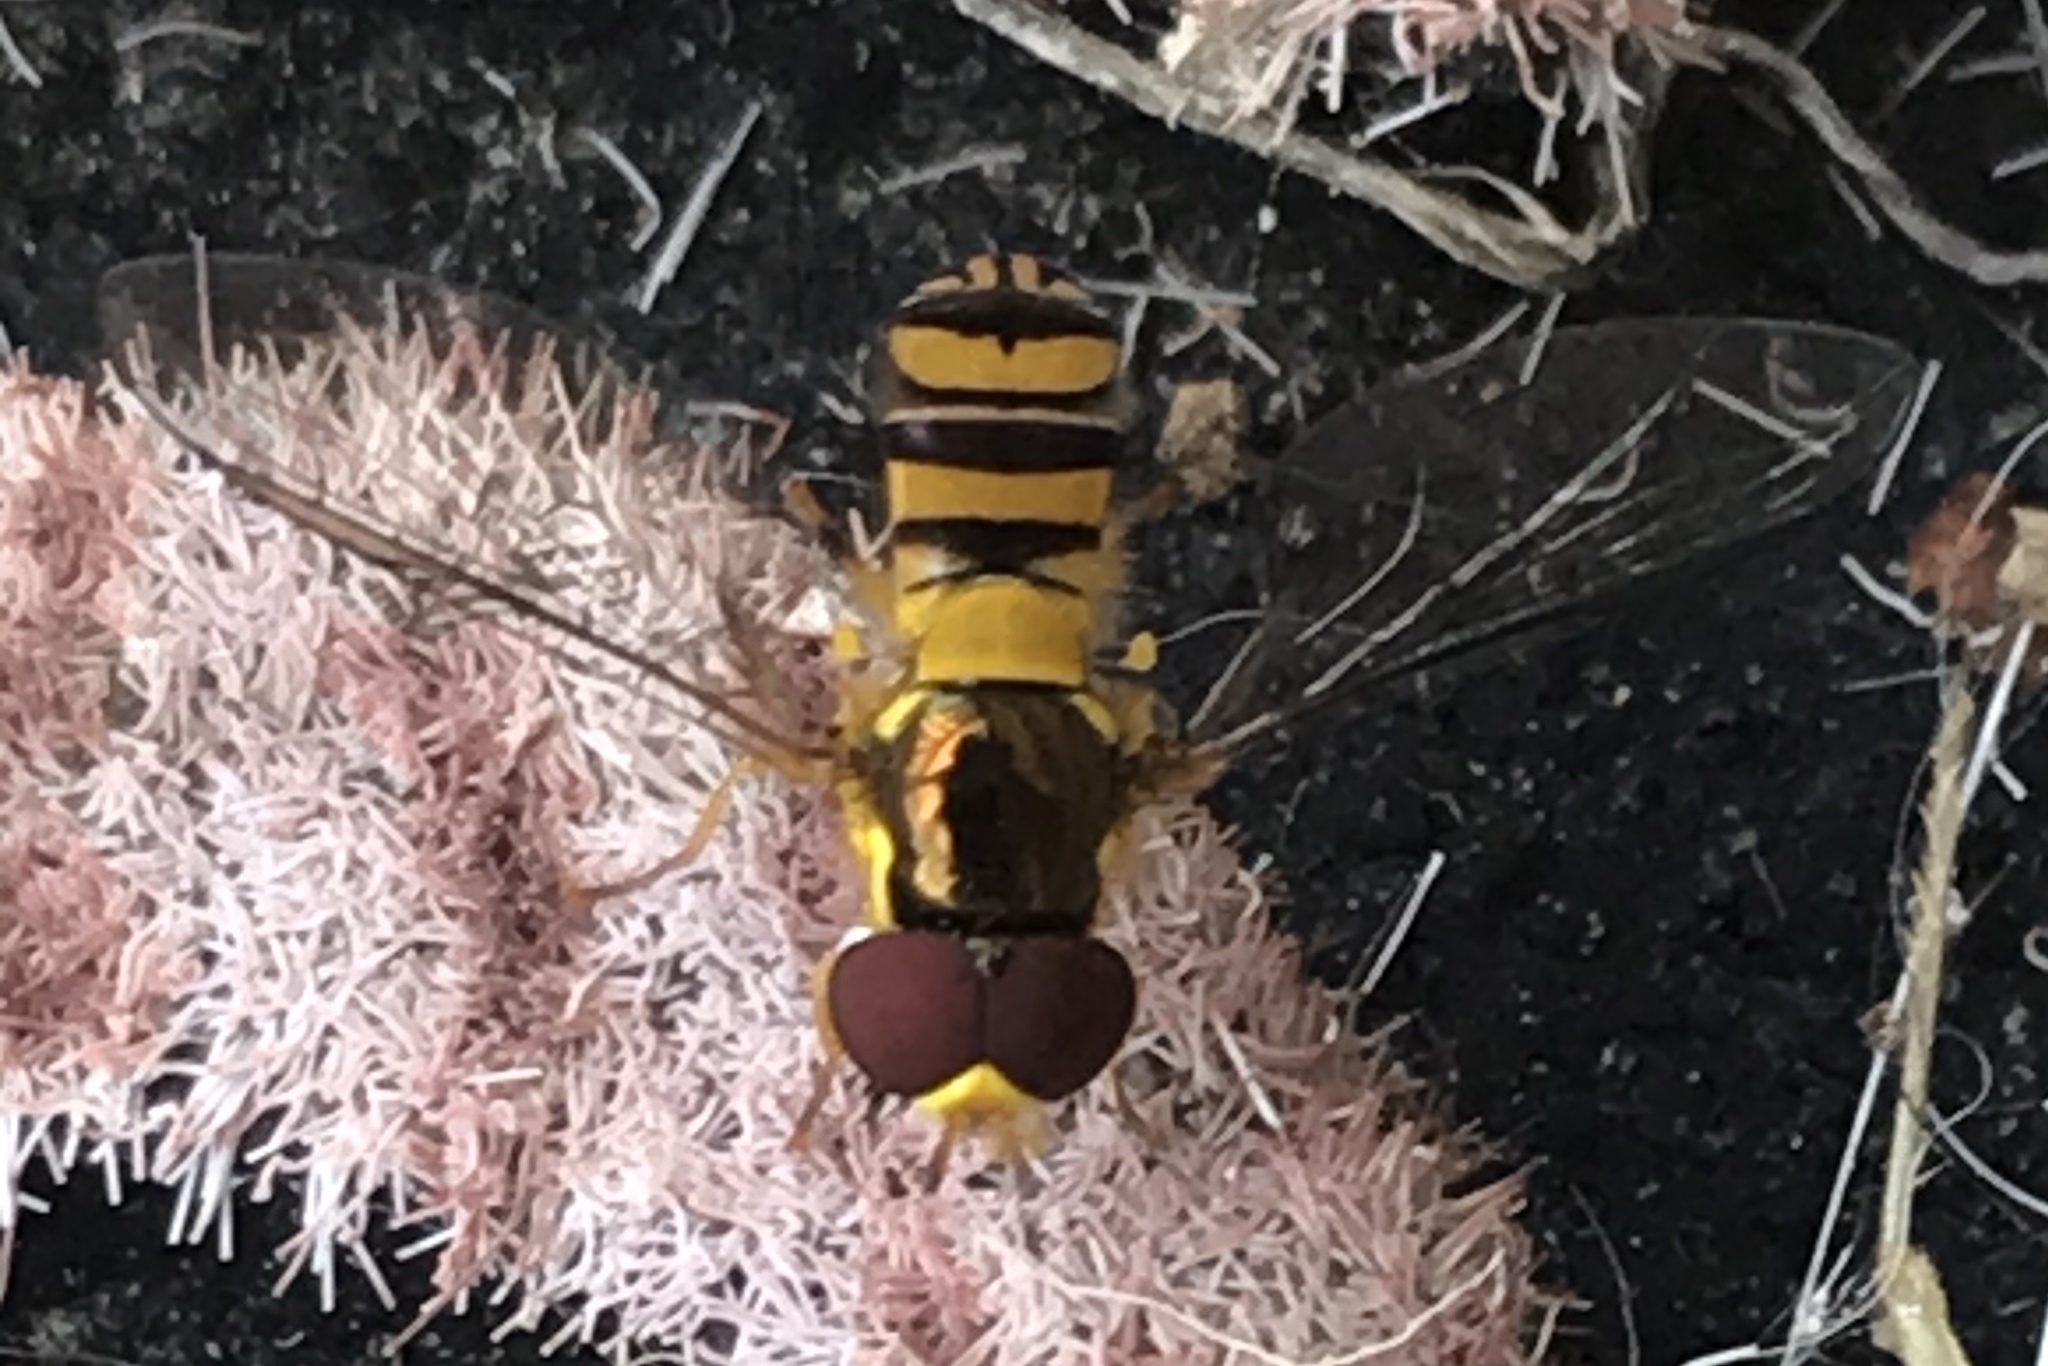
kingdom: Animalia
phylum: Arthropoda
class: Insecta
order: Diptera
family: Syrphidae
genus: Allograpta
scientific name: Allograpta obliqua
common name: Common oblique syrphid
